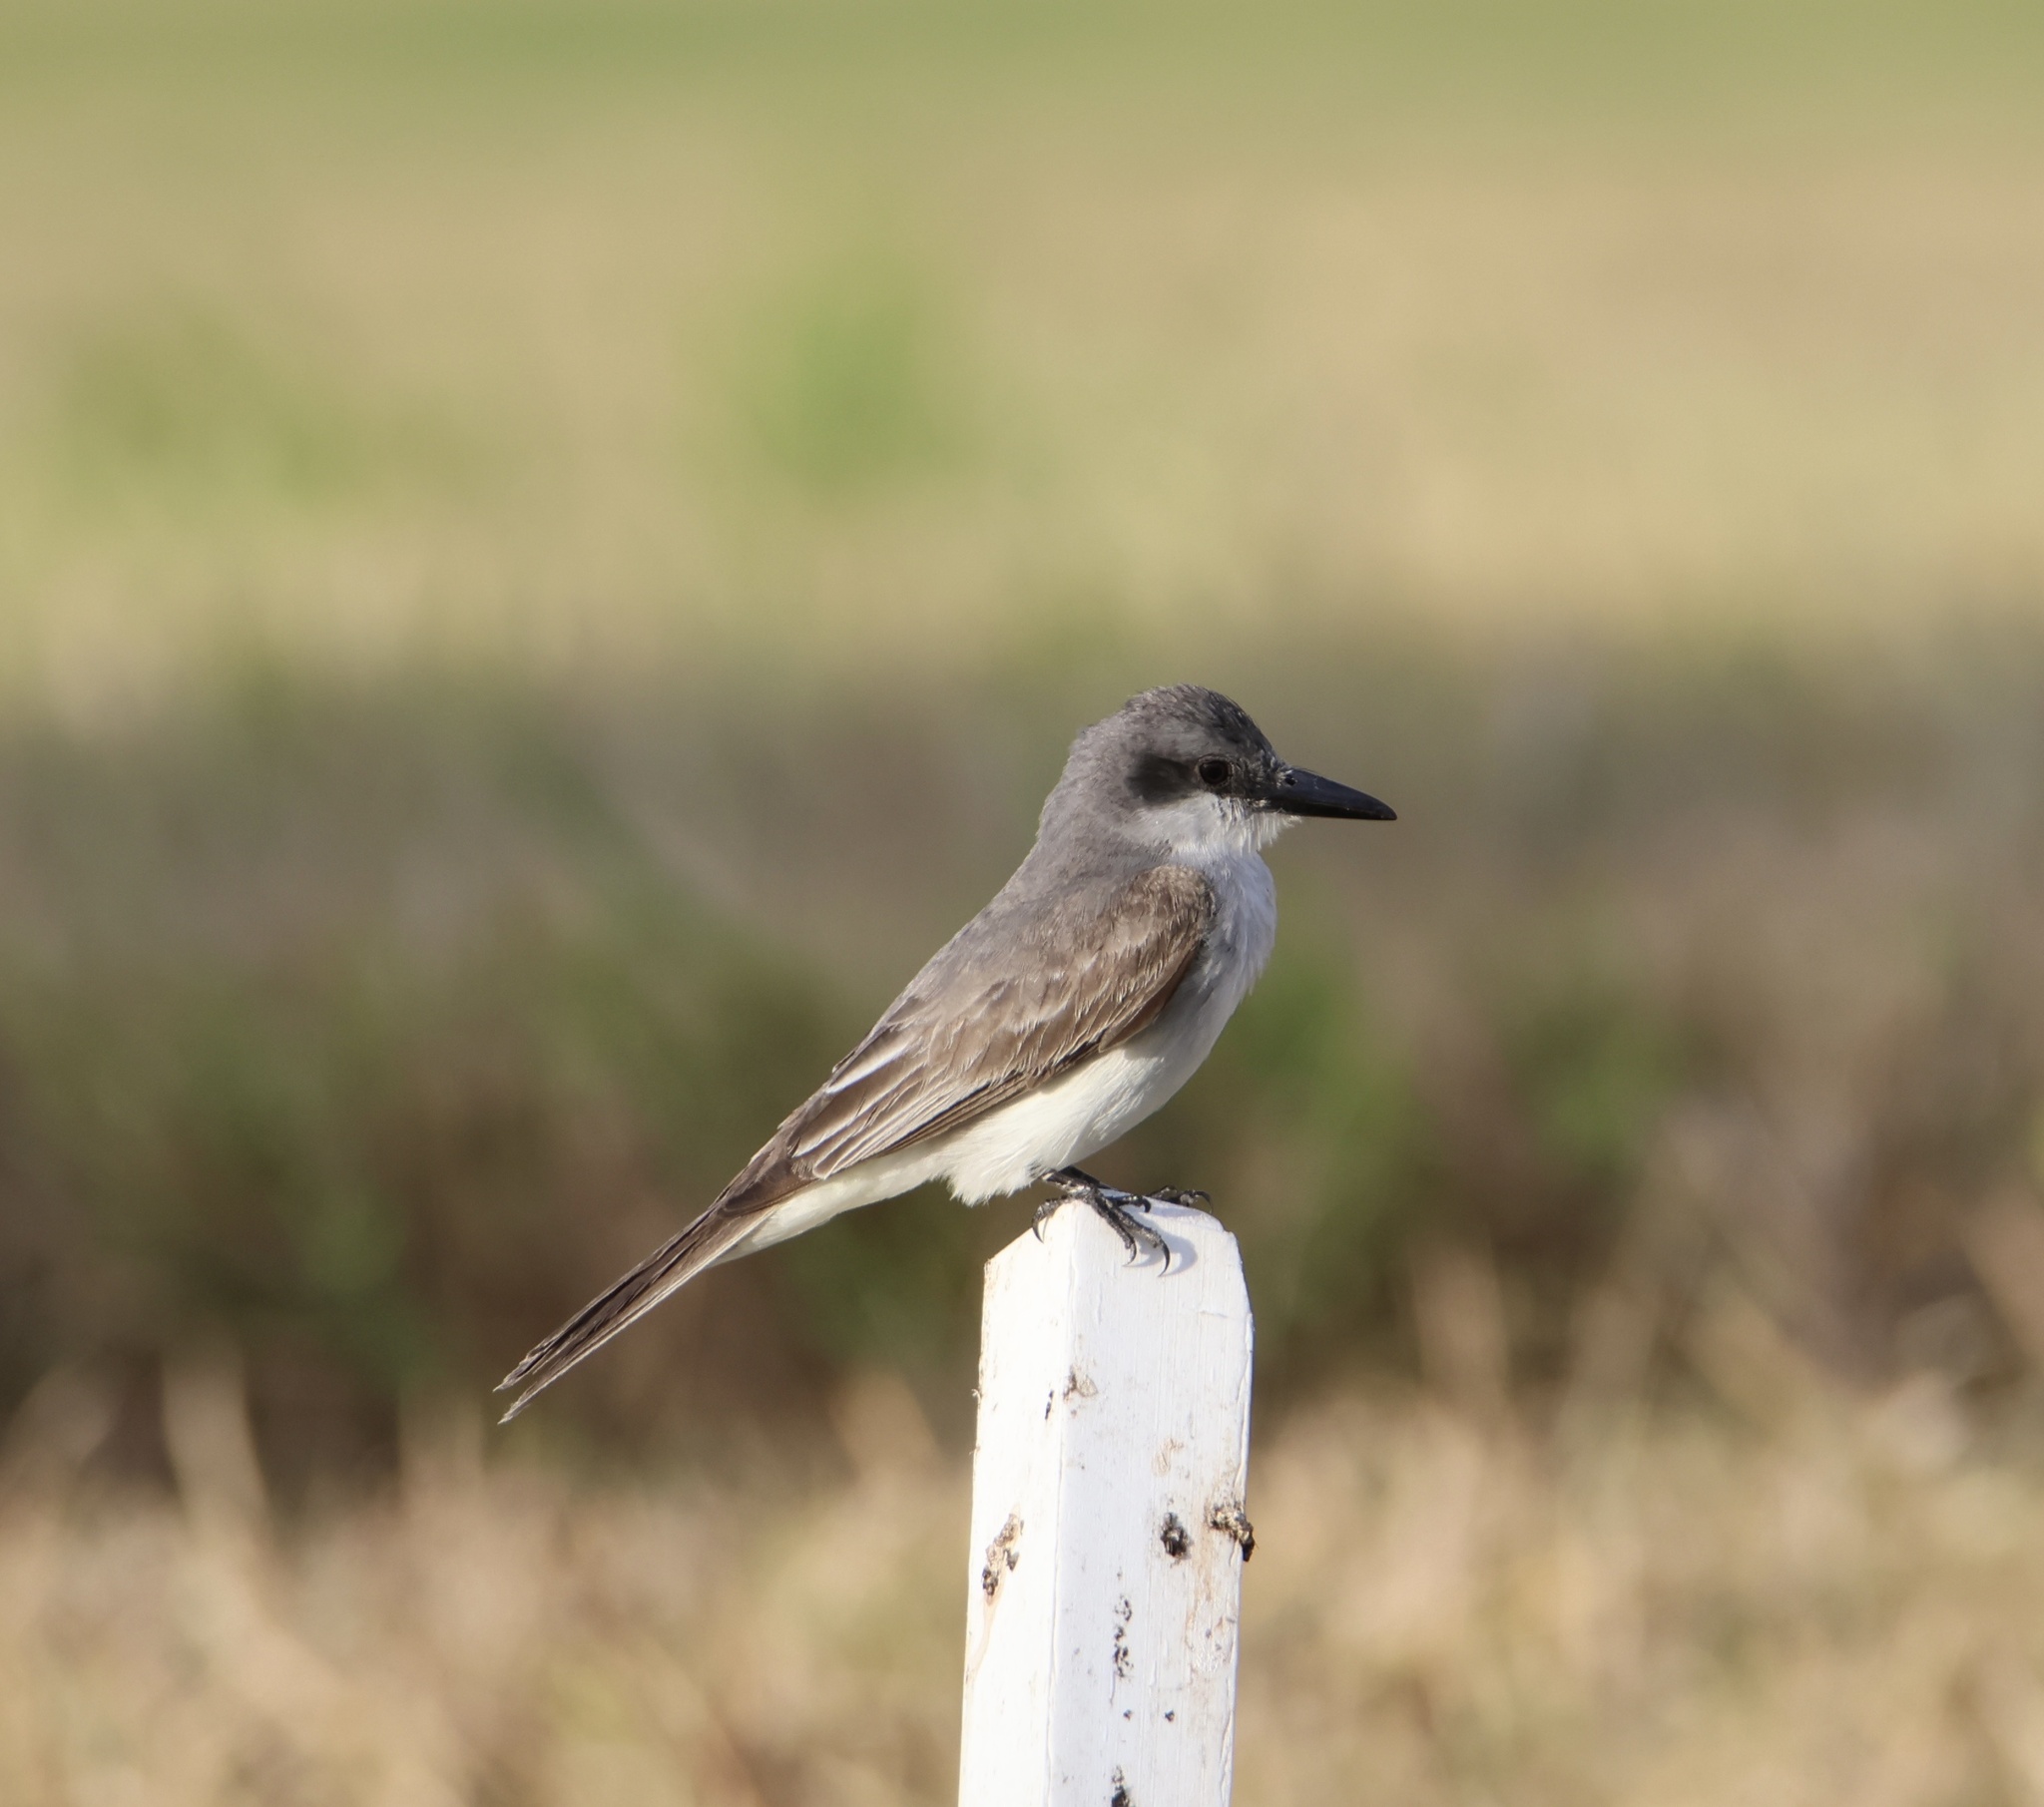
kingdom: Animalia
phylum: Chordata
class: Aves
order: Passeriformes
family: Tyrannidae
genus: Tyrannus
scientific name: Tyrannus dominicensis
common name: Gray kingbird
